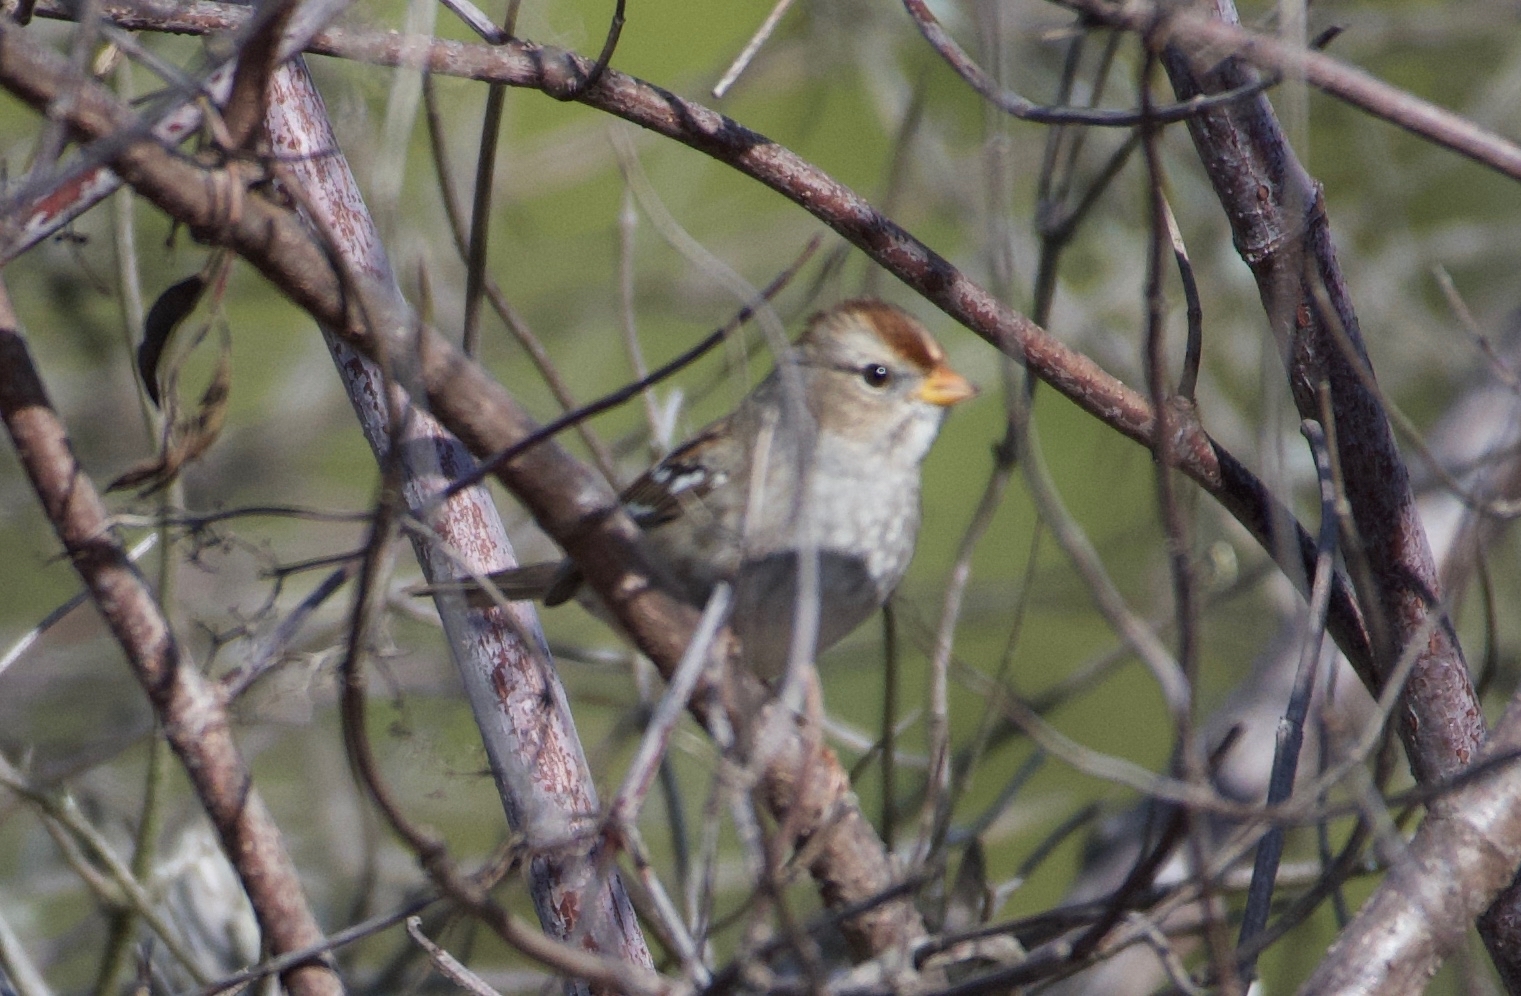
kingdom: Animalia
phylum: Chordata
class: Aves
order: Passeriformes
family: Passerellidae
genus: Zonotrichia
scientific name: Zonotrichia leucophrys
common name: White-crowned sparrow
